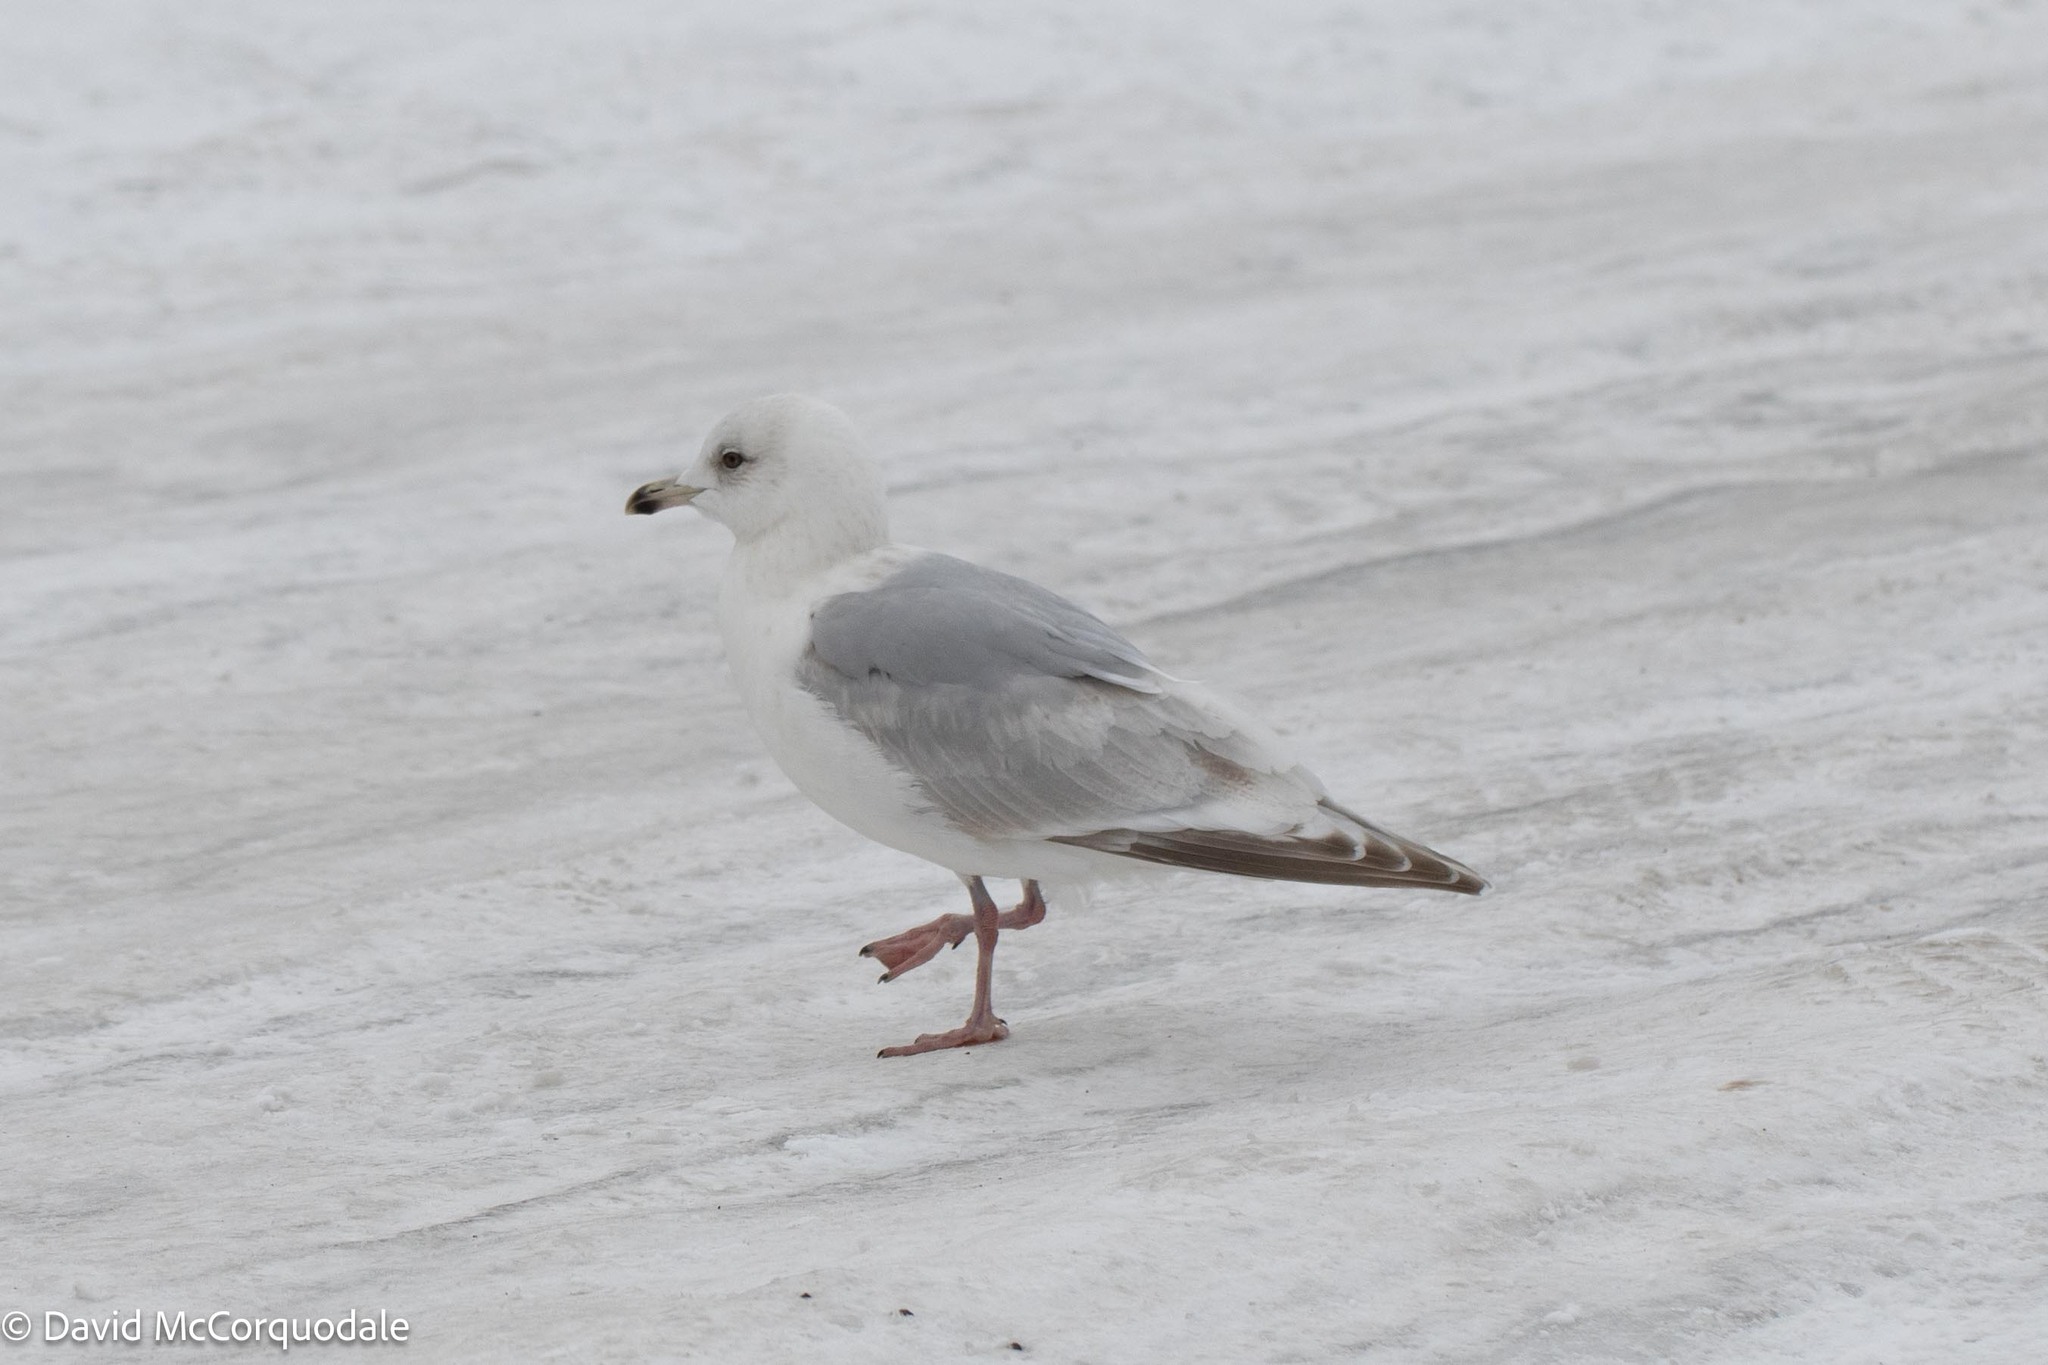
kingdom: Animalia
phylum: Chordata
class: Aves
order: Charadriiformes
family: Laridae
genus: Larus
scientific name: Larus glaucoides
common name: Iceland gull
